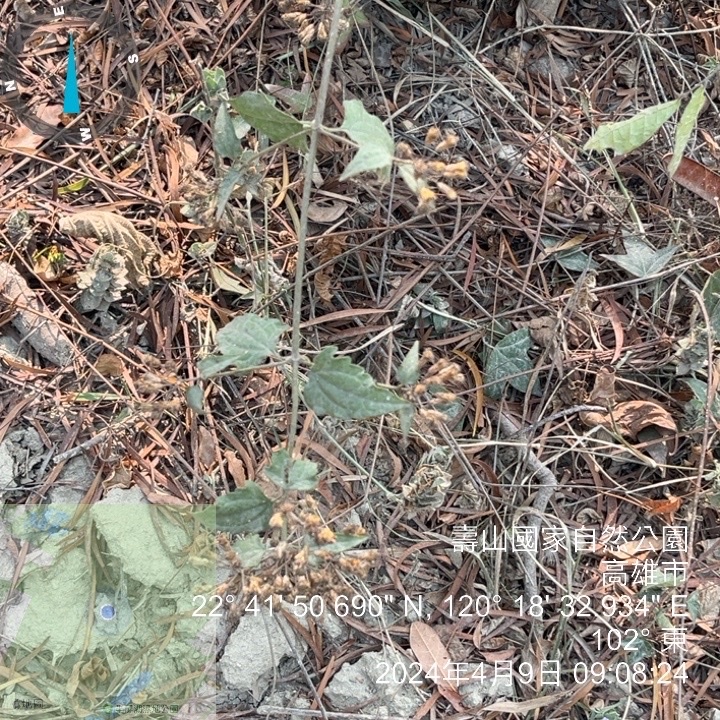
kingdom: Plantae
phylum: Tracheophyta
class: Magnoliopsida
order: Asterales
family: Asteraceae
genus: Chromolaena
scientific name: Chromolaena odorata
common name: Siamweed
